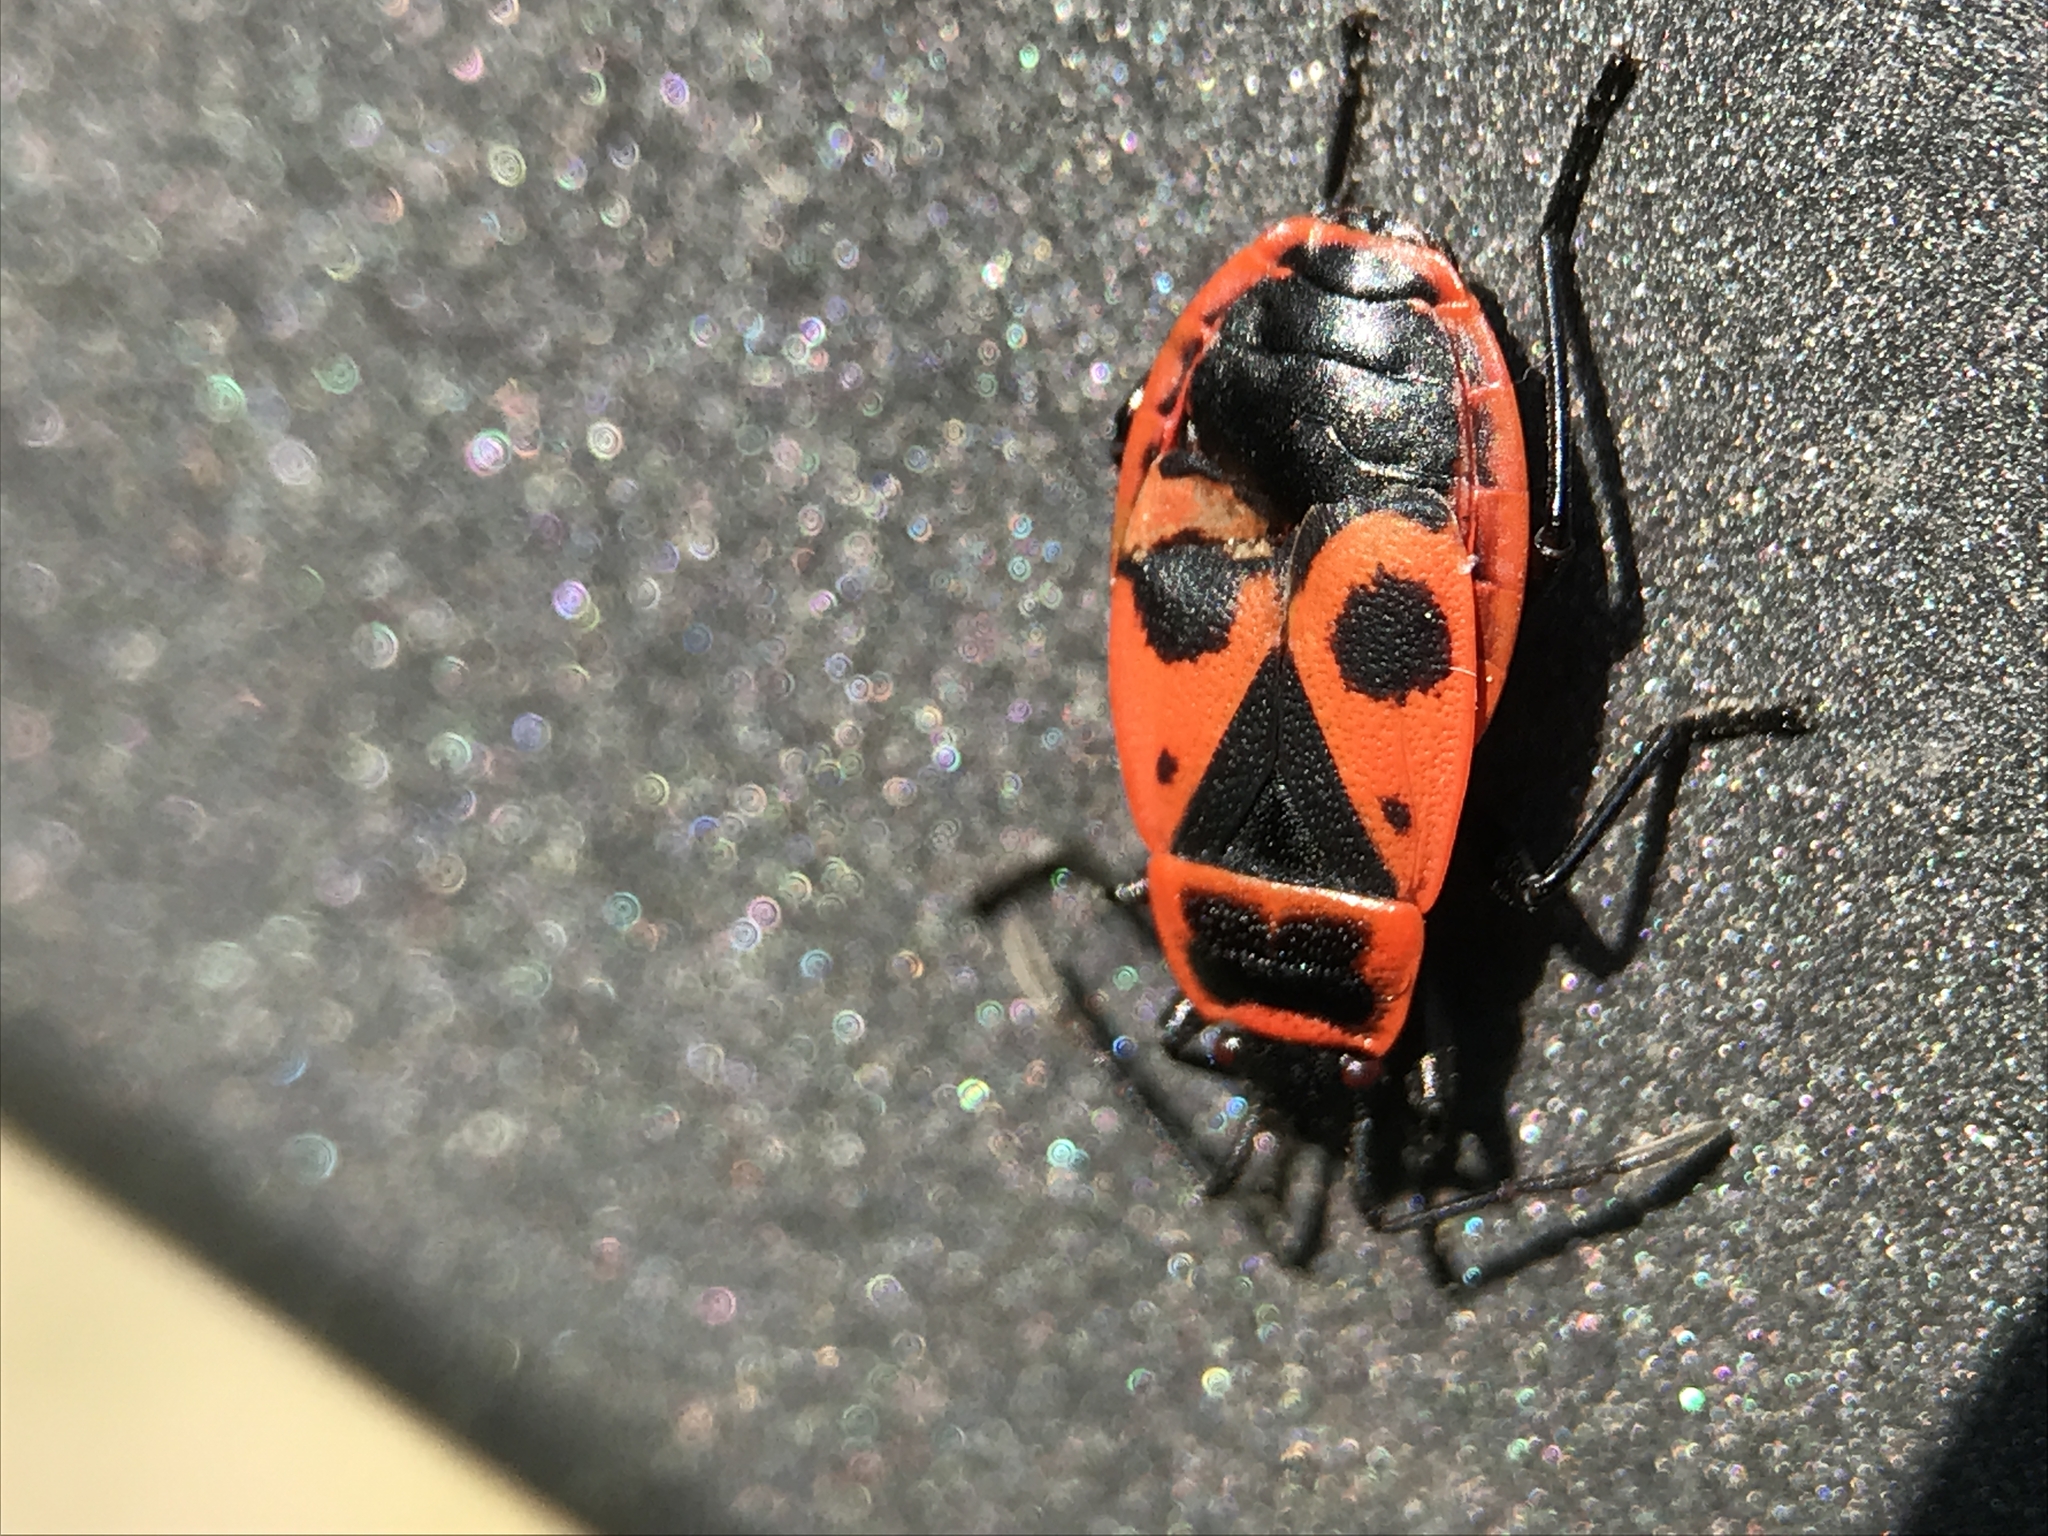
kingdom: Animalia
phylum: Arthropoda
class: Insecta
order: Hemiptera
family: Pyrrhocoridae
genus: Pyrrhocoris
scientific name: Pyrrhocoris apterus
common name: Firebug
